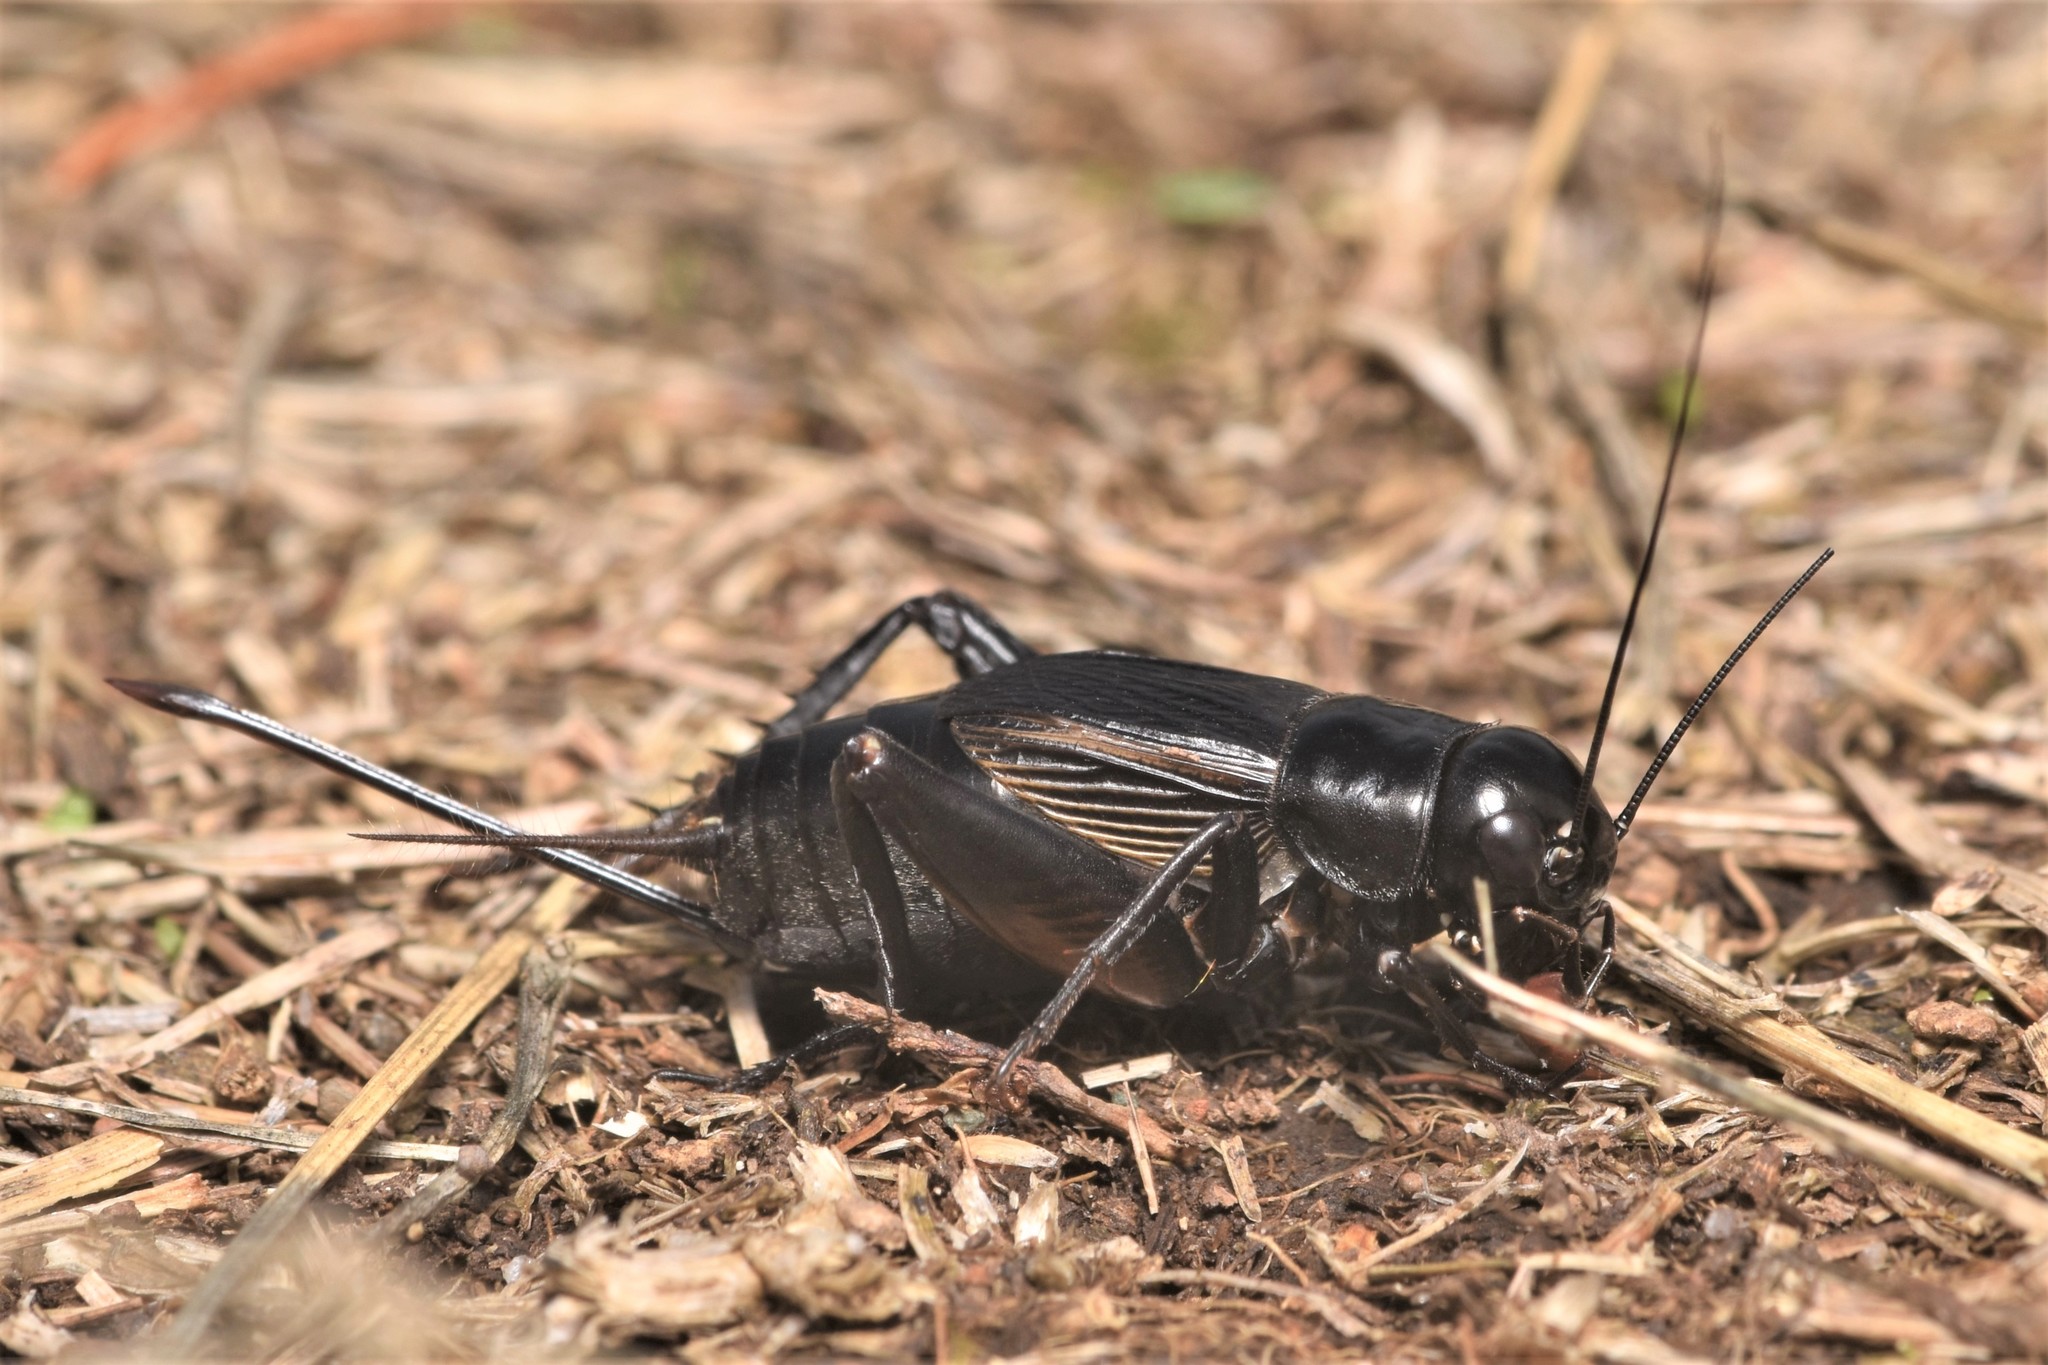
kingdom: Animalia
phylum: Arthropoda
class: Insecta
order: Orthoptera
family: Gryllidae
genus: Gryllus
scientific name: Gryllus pennsylvanicus
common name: Fall field cricket
